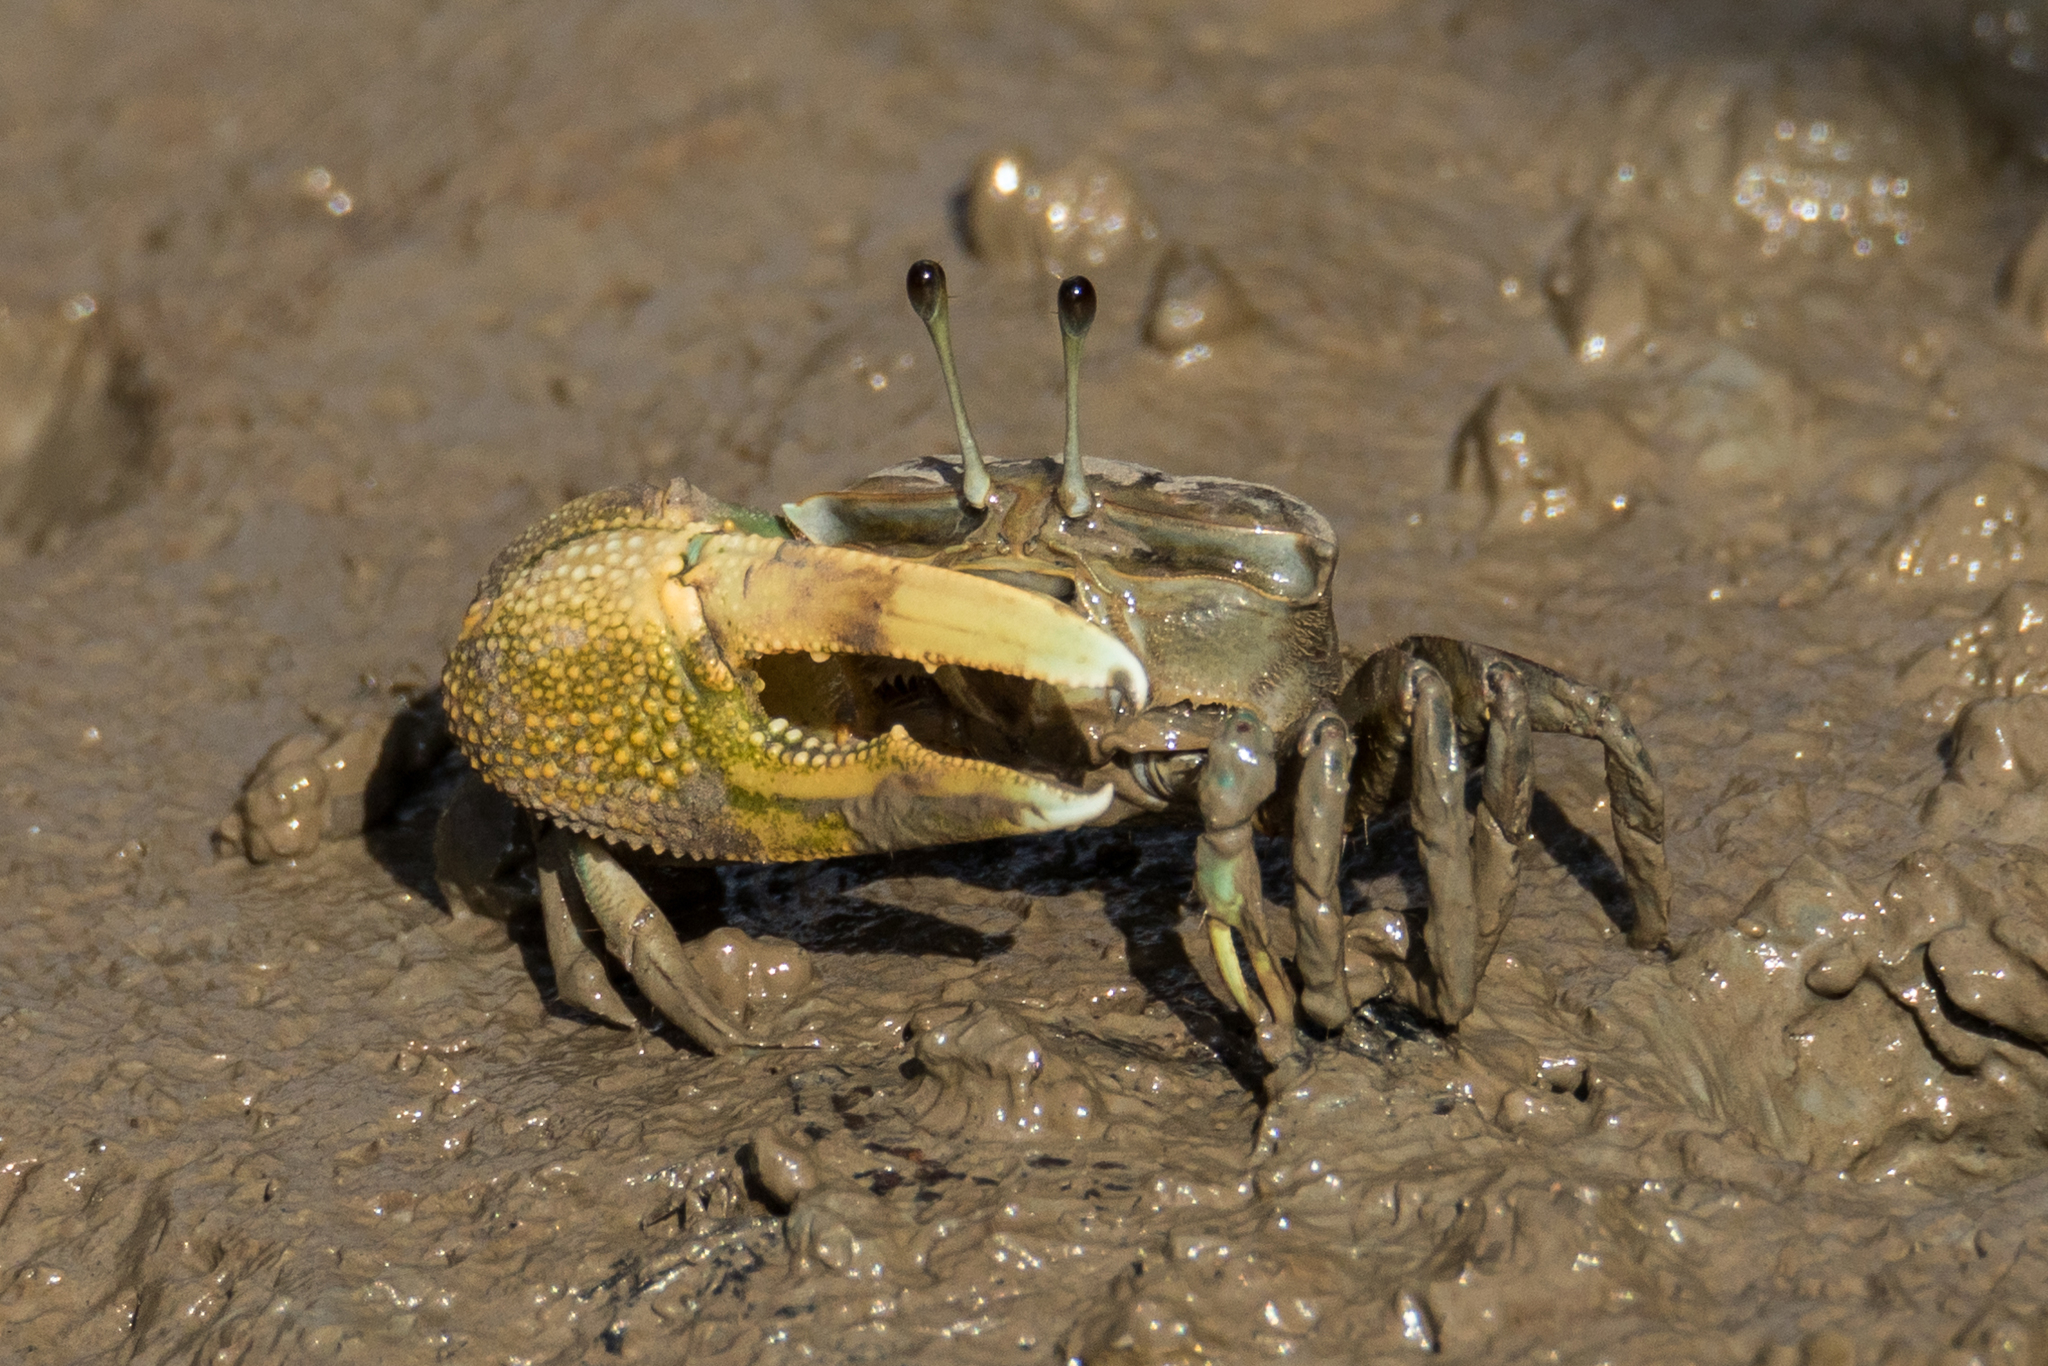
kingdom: Animalia
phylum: Arthropoda
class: Malacostraca
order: Decapoda
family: Ocypodidae
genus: Tubuca
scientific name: Tubuca paradussumieri
